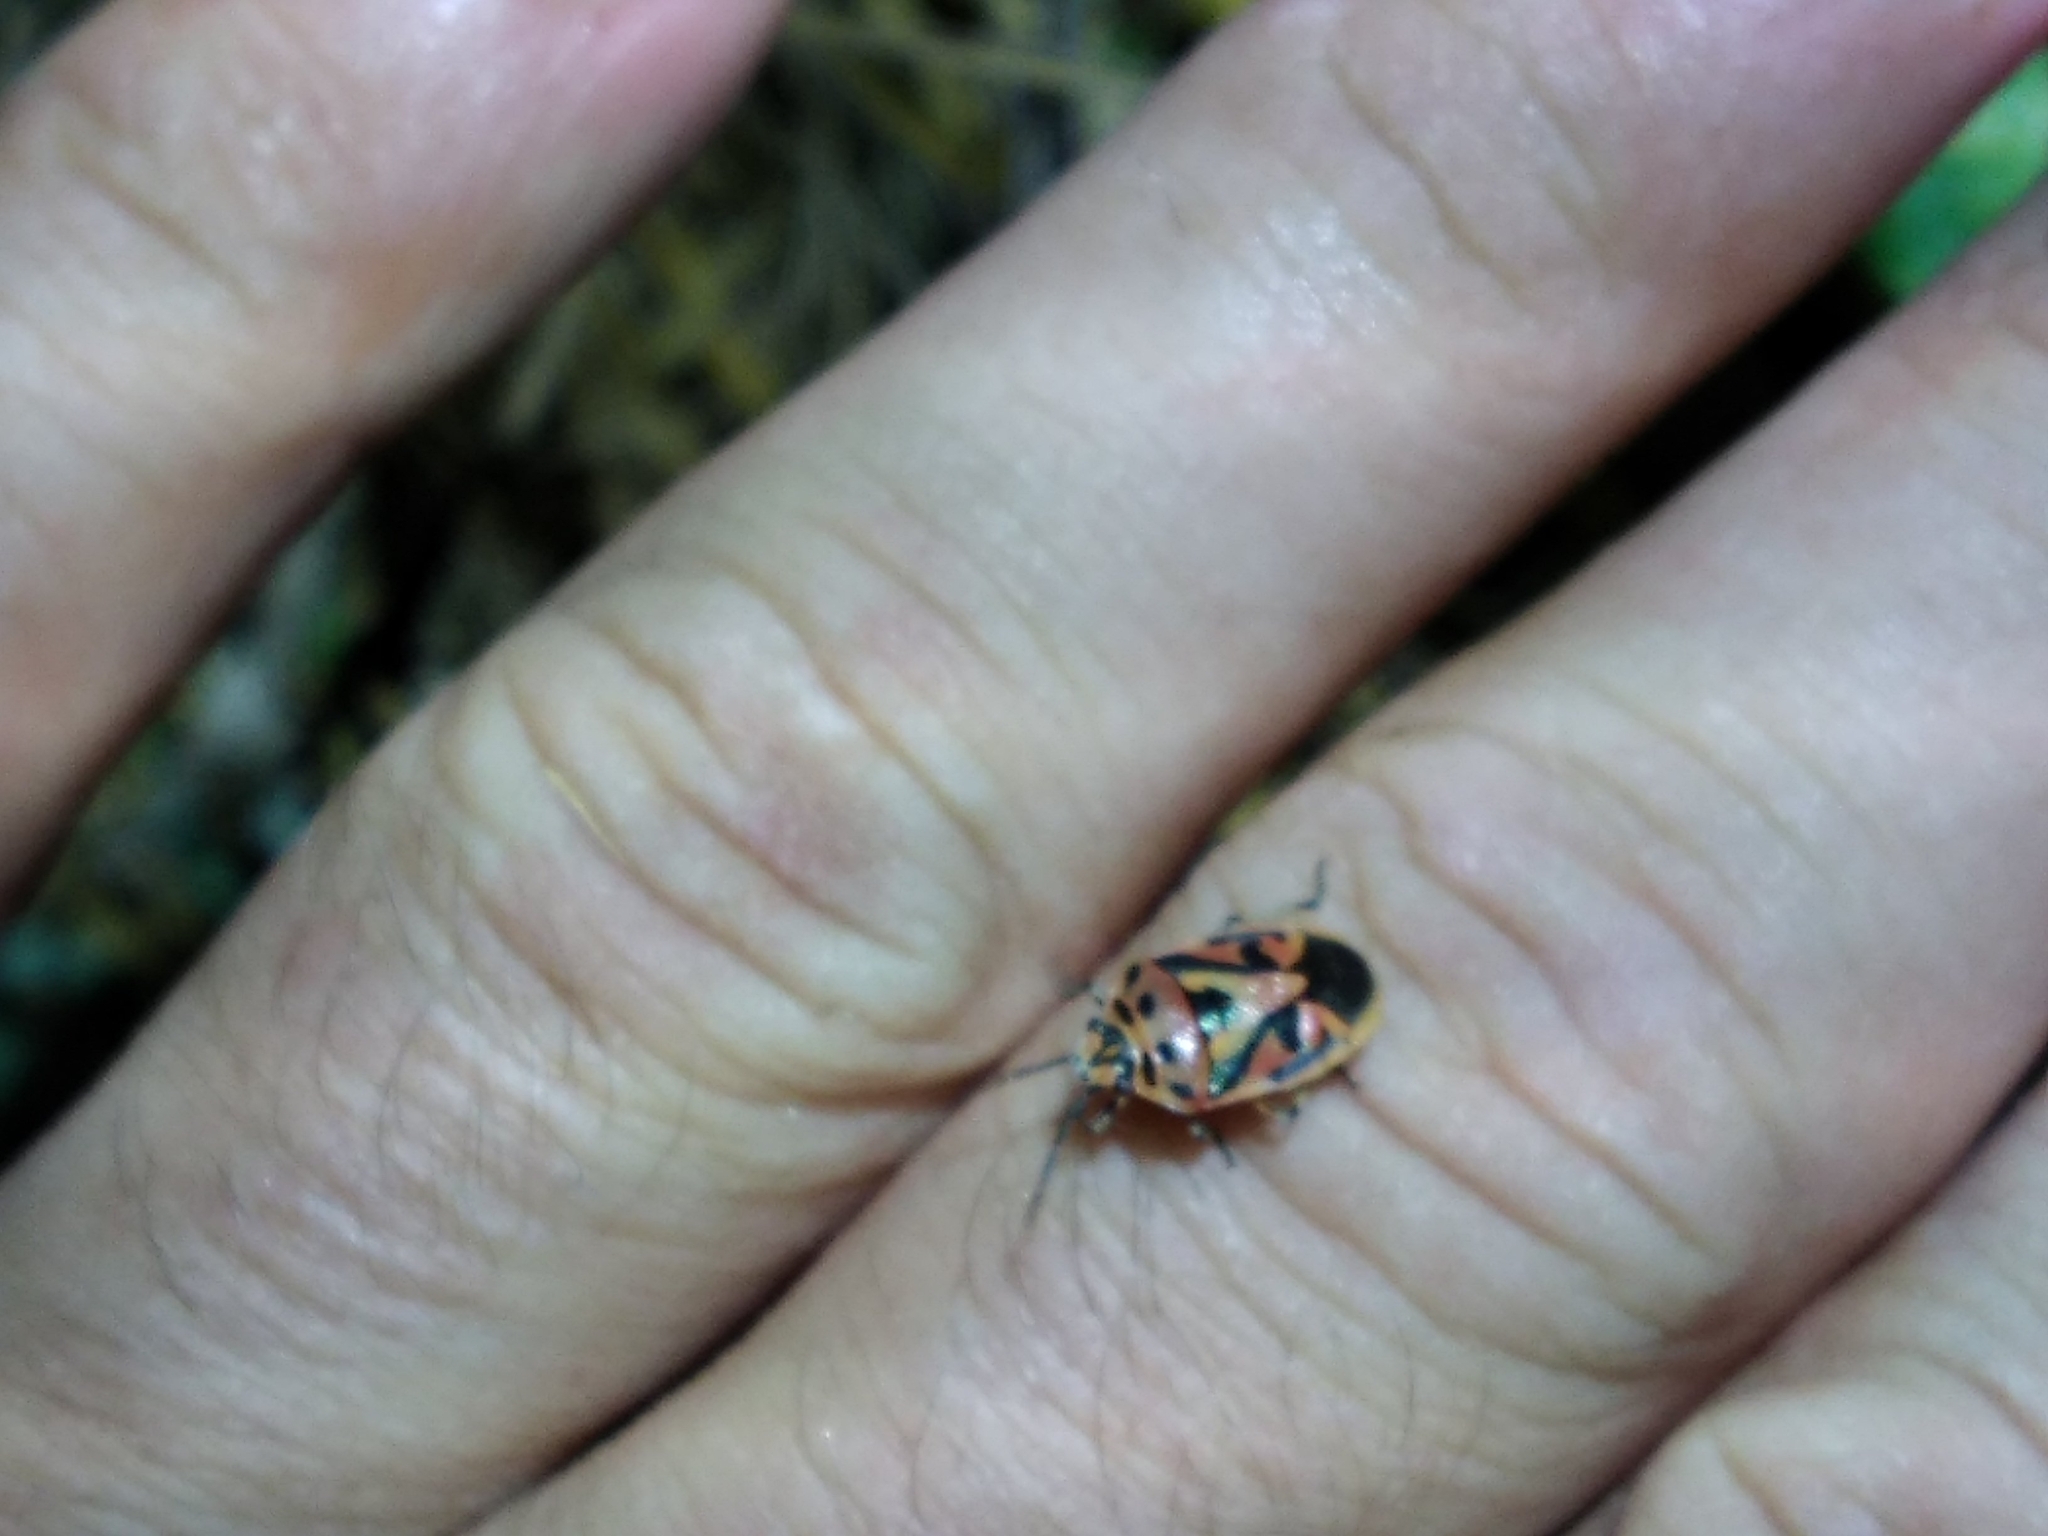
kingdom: Animalia
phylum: Arthropoda
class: Insecta
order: Hemiptera
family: Pentatomidae
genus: Eurydema
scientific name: Eurydema ornata
